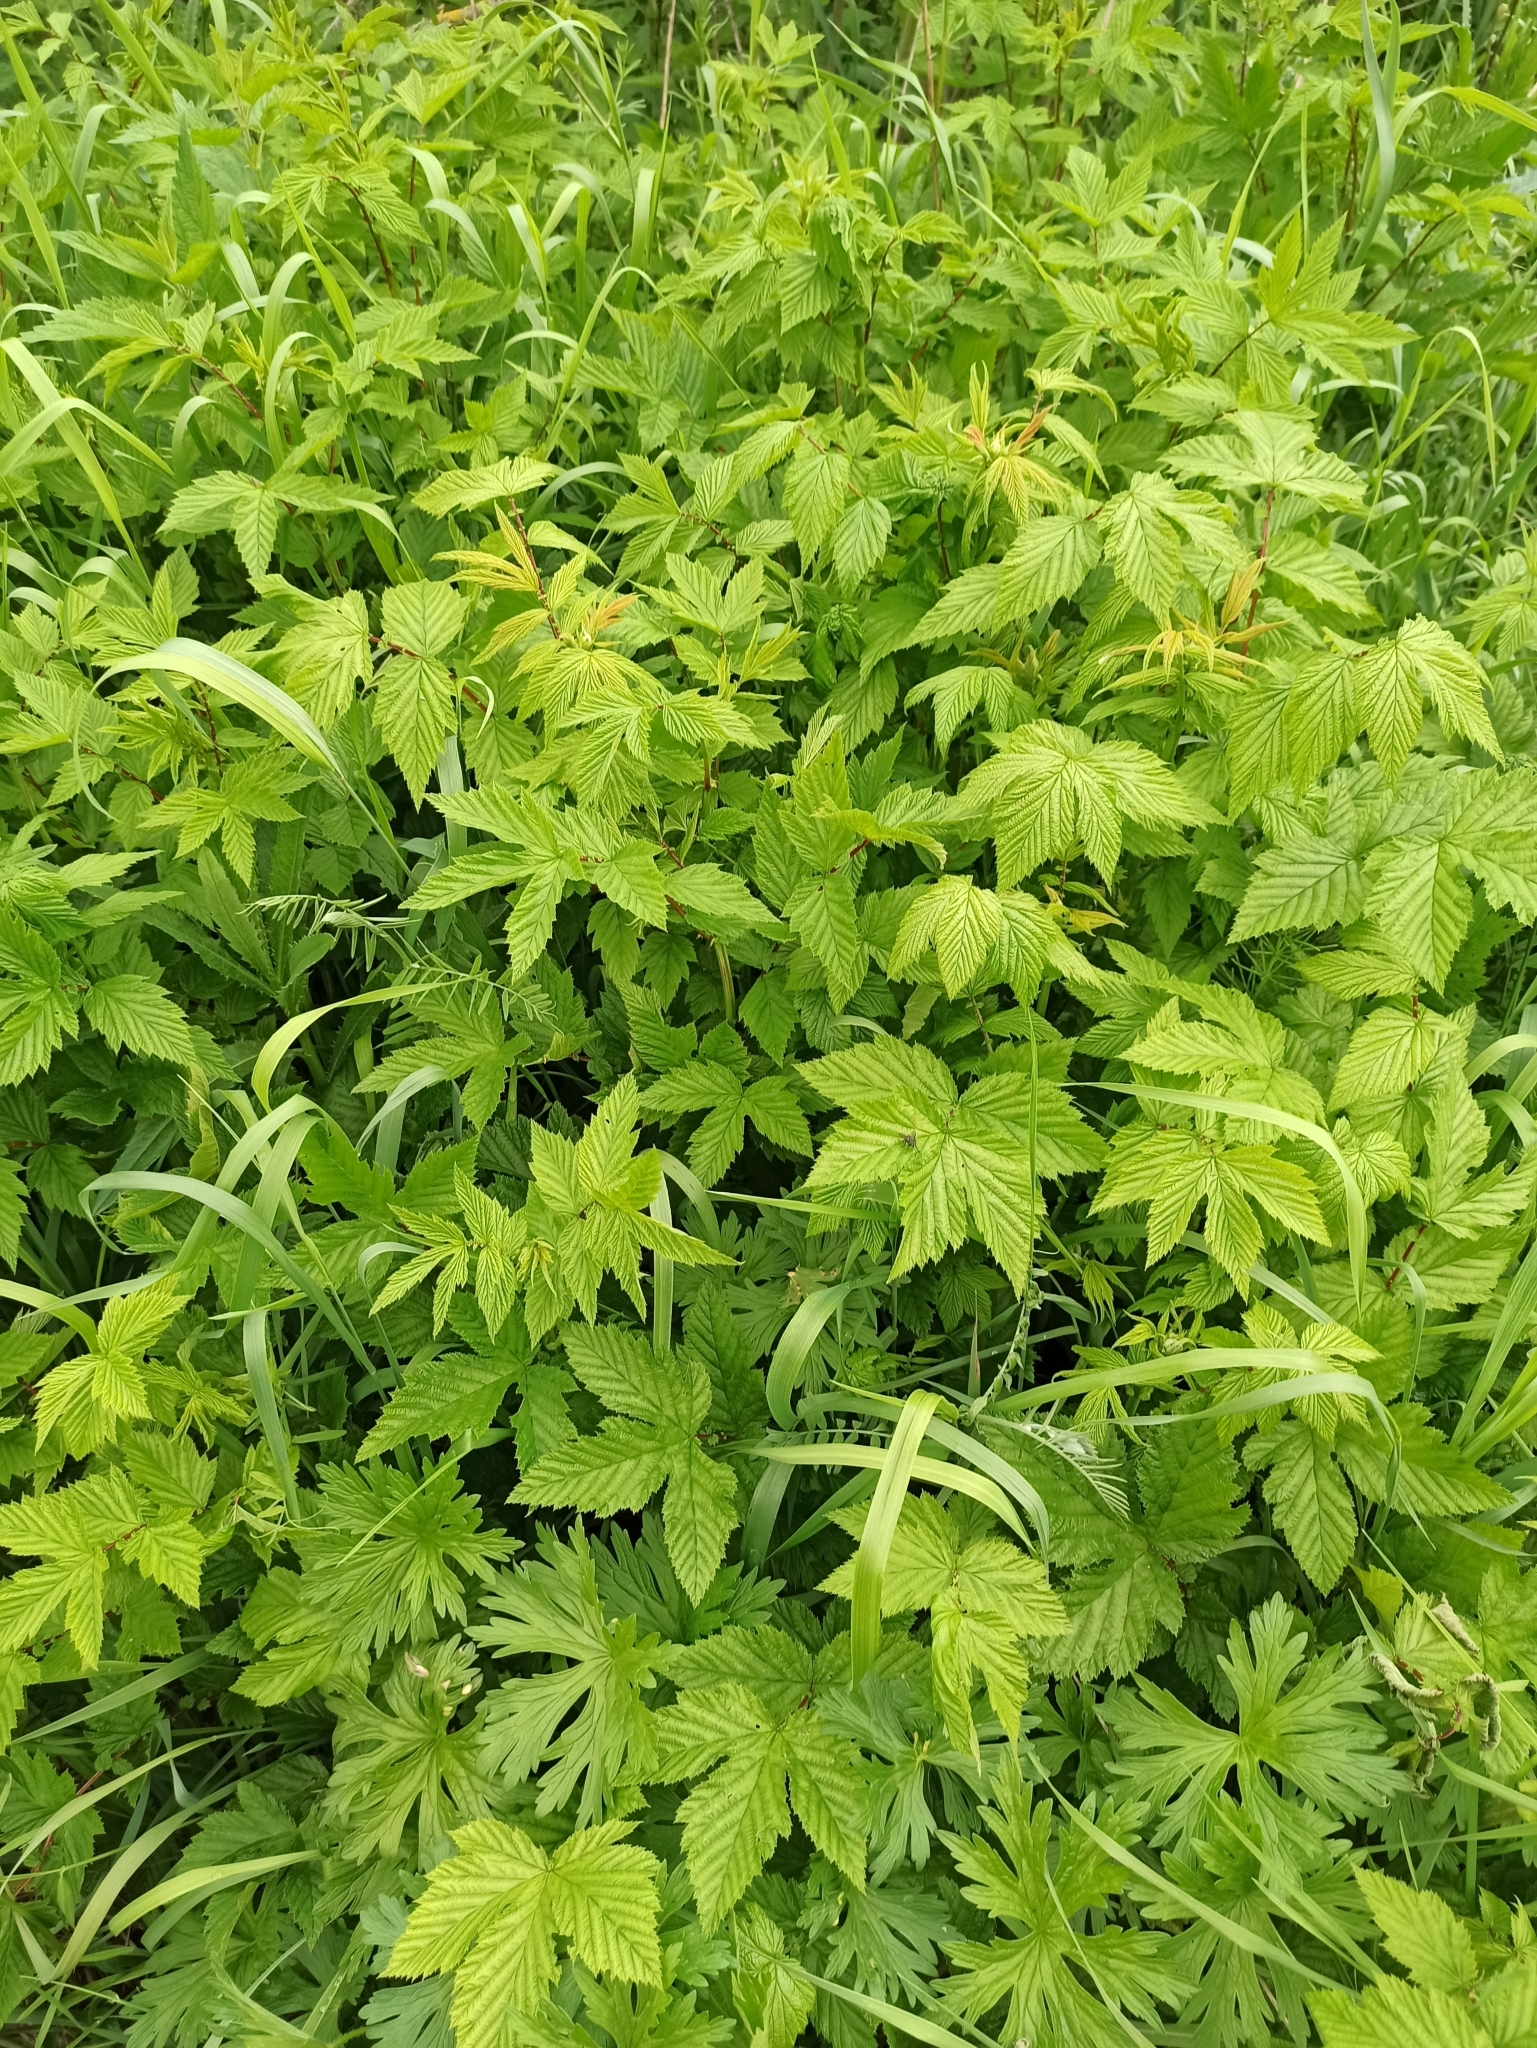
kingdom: Plantae
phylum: Tracheophyta
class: Magnoliopsida
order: Rosales
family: Rosaceae
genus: Filipendula
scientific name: Filipendula ulmaria
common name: Meadowsweet
